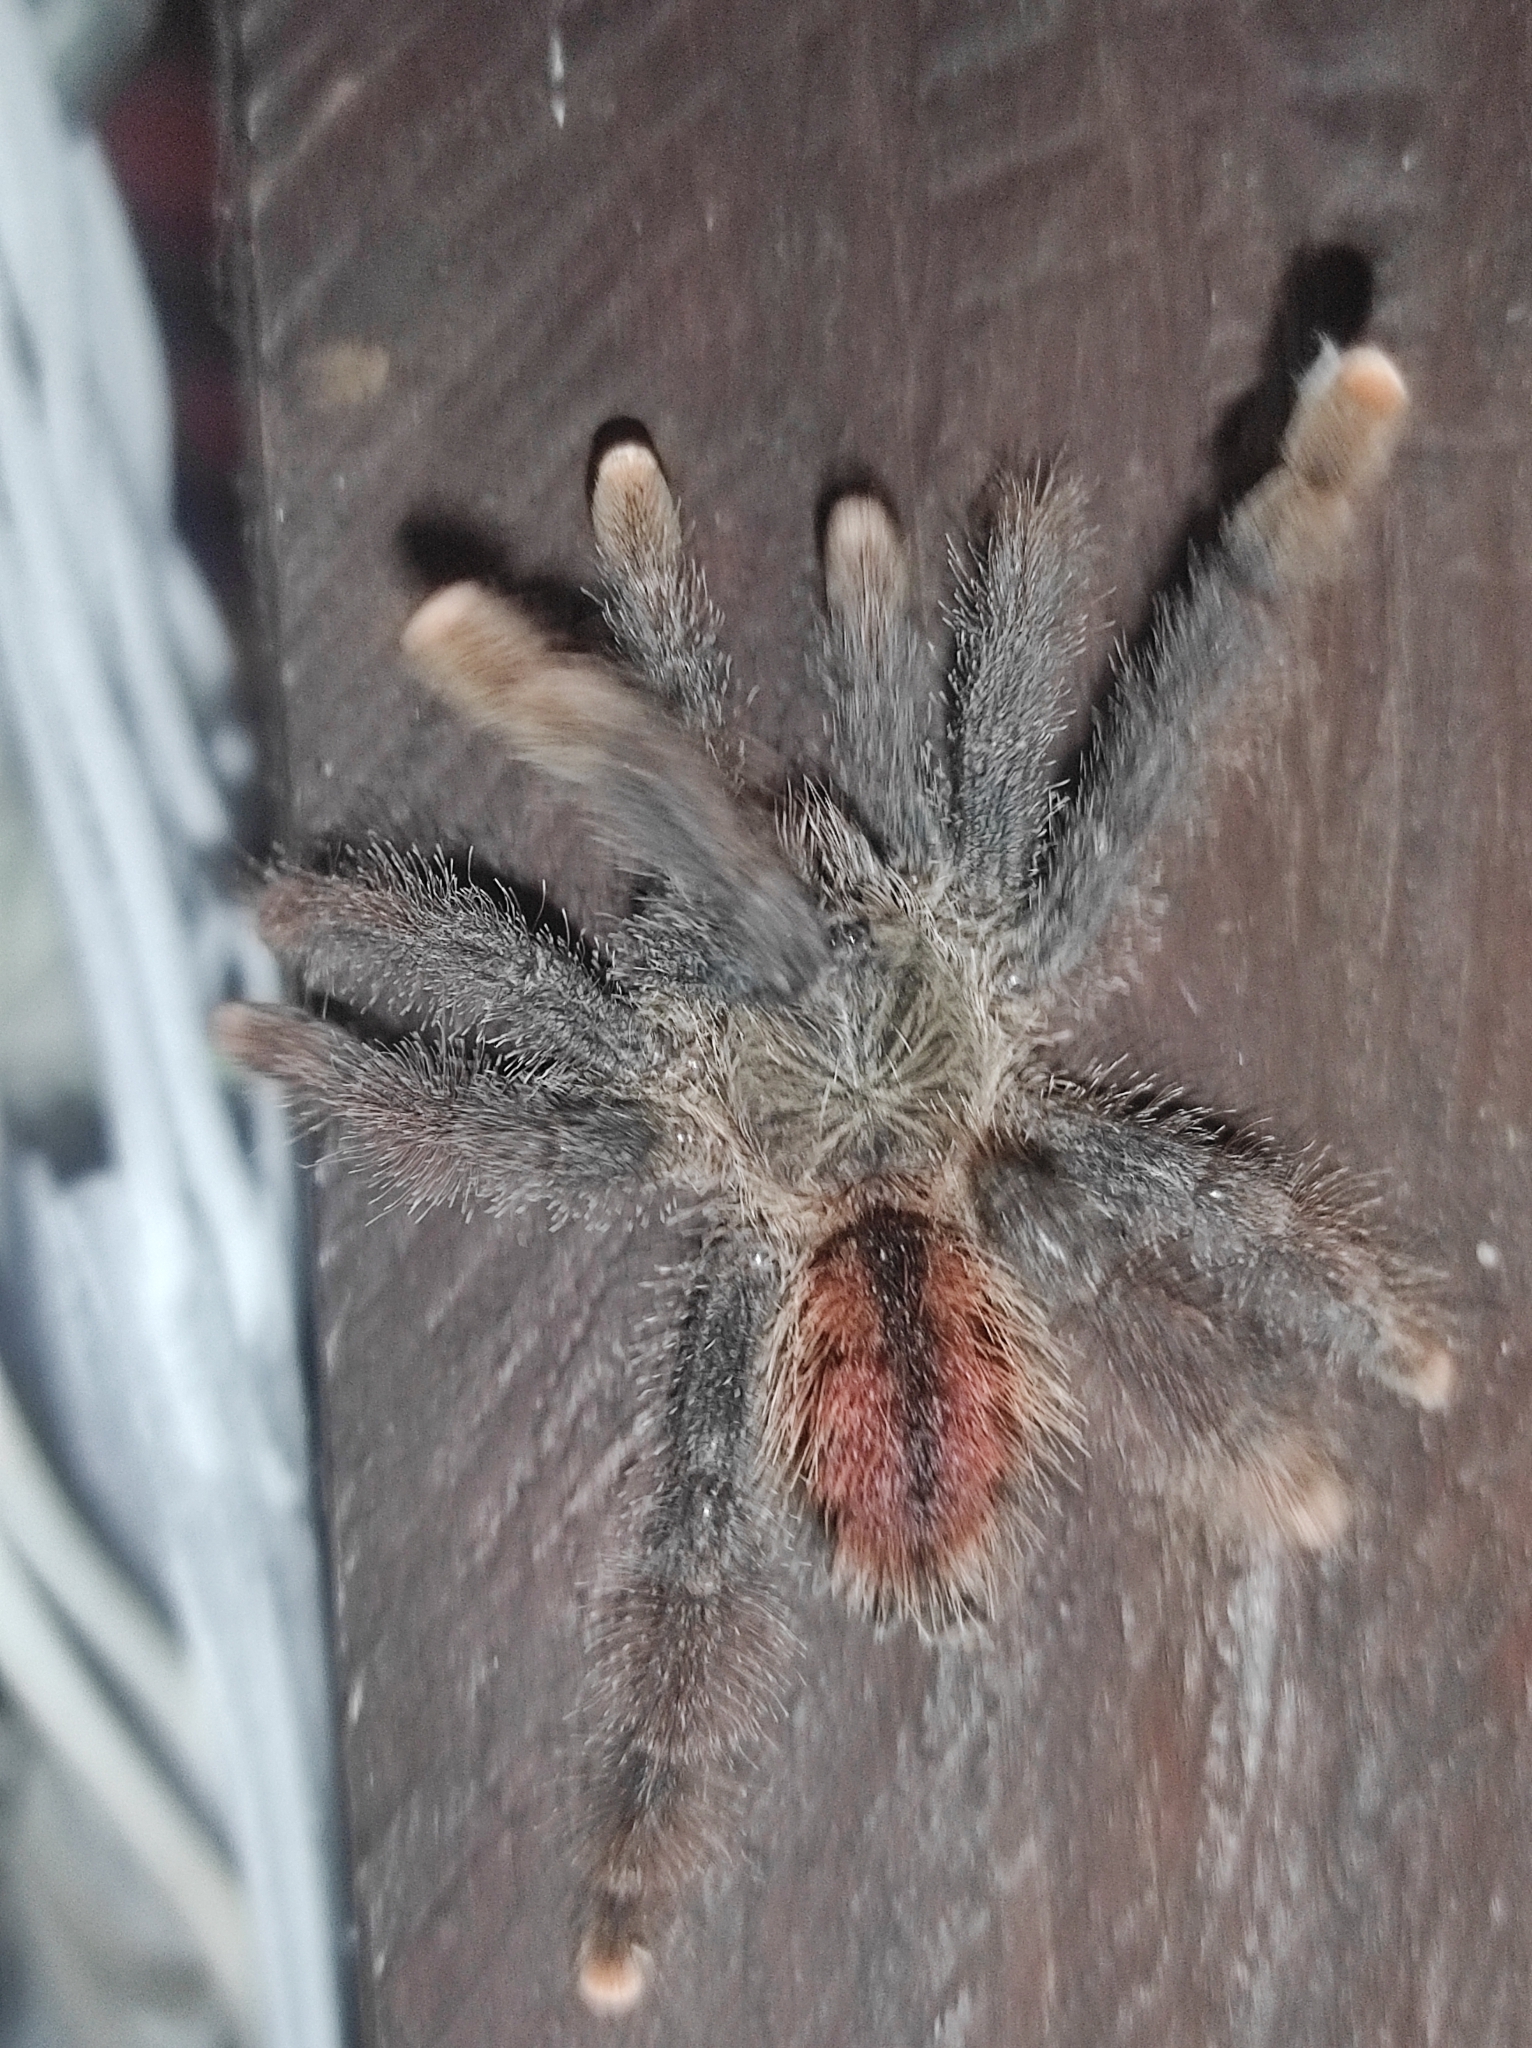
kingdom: Animalia
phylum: Arthropoda
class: Arachnida
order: Araneae
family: Theraphosidae
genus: Avicularia
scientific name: Avicularia avicularia
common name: Tarantula spiders
